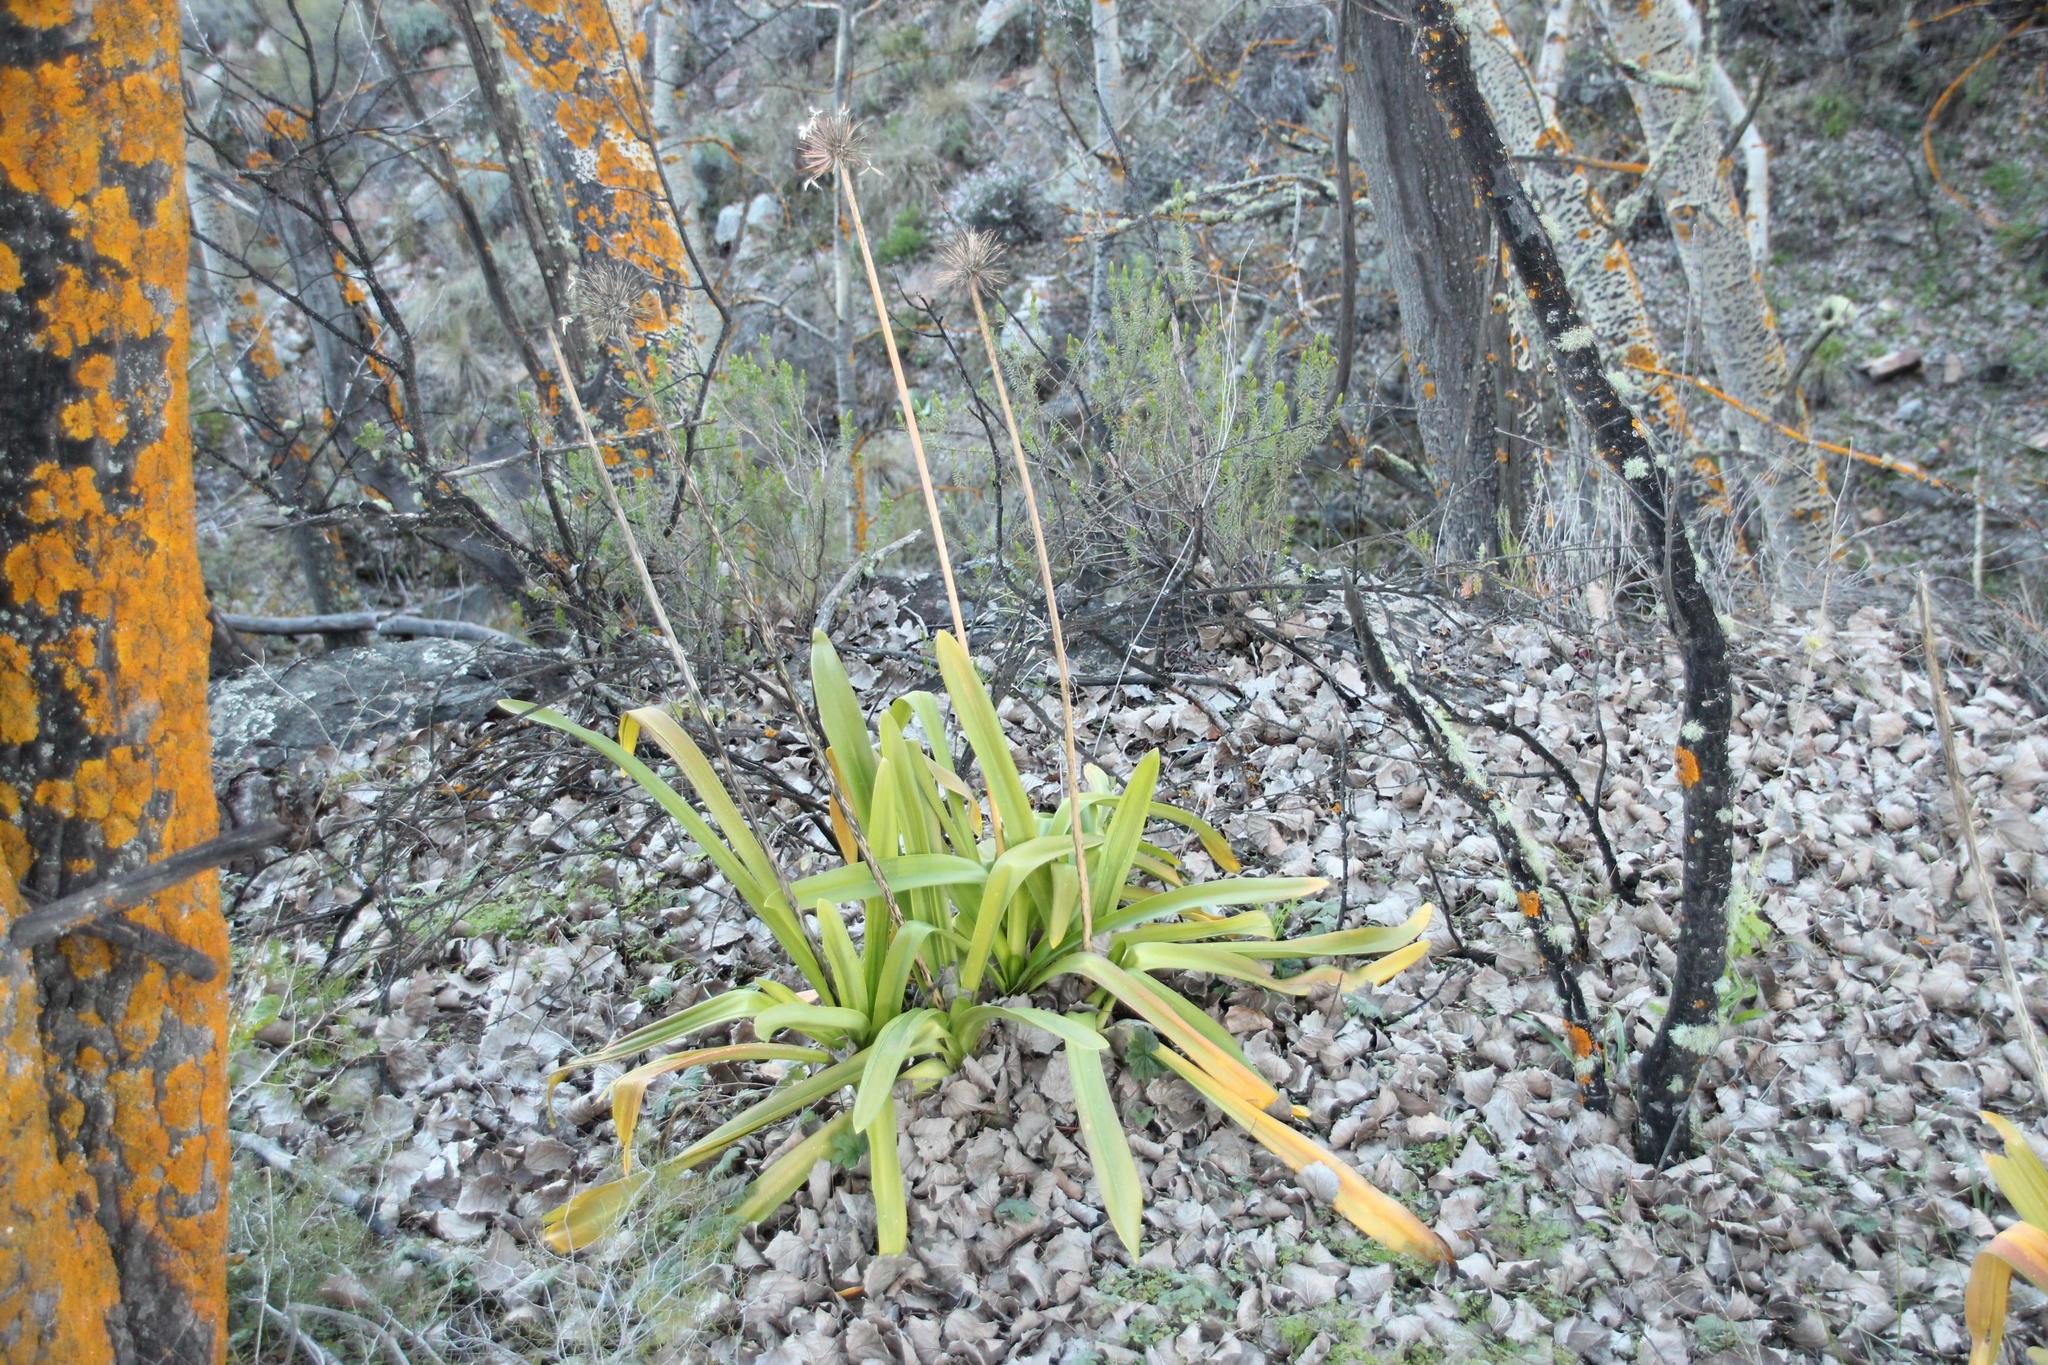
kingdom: Plantae
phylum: Tracheophyta
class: Liliopsida
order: Asparagales
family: Amaryllidaceae
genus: Agapanthus
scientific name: Agapanthus praecox
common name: African-lily
